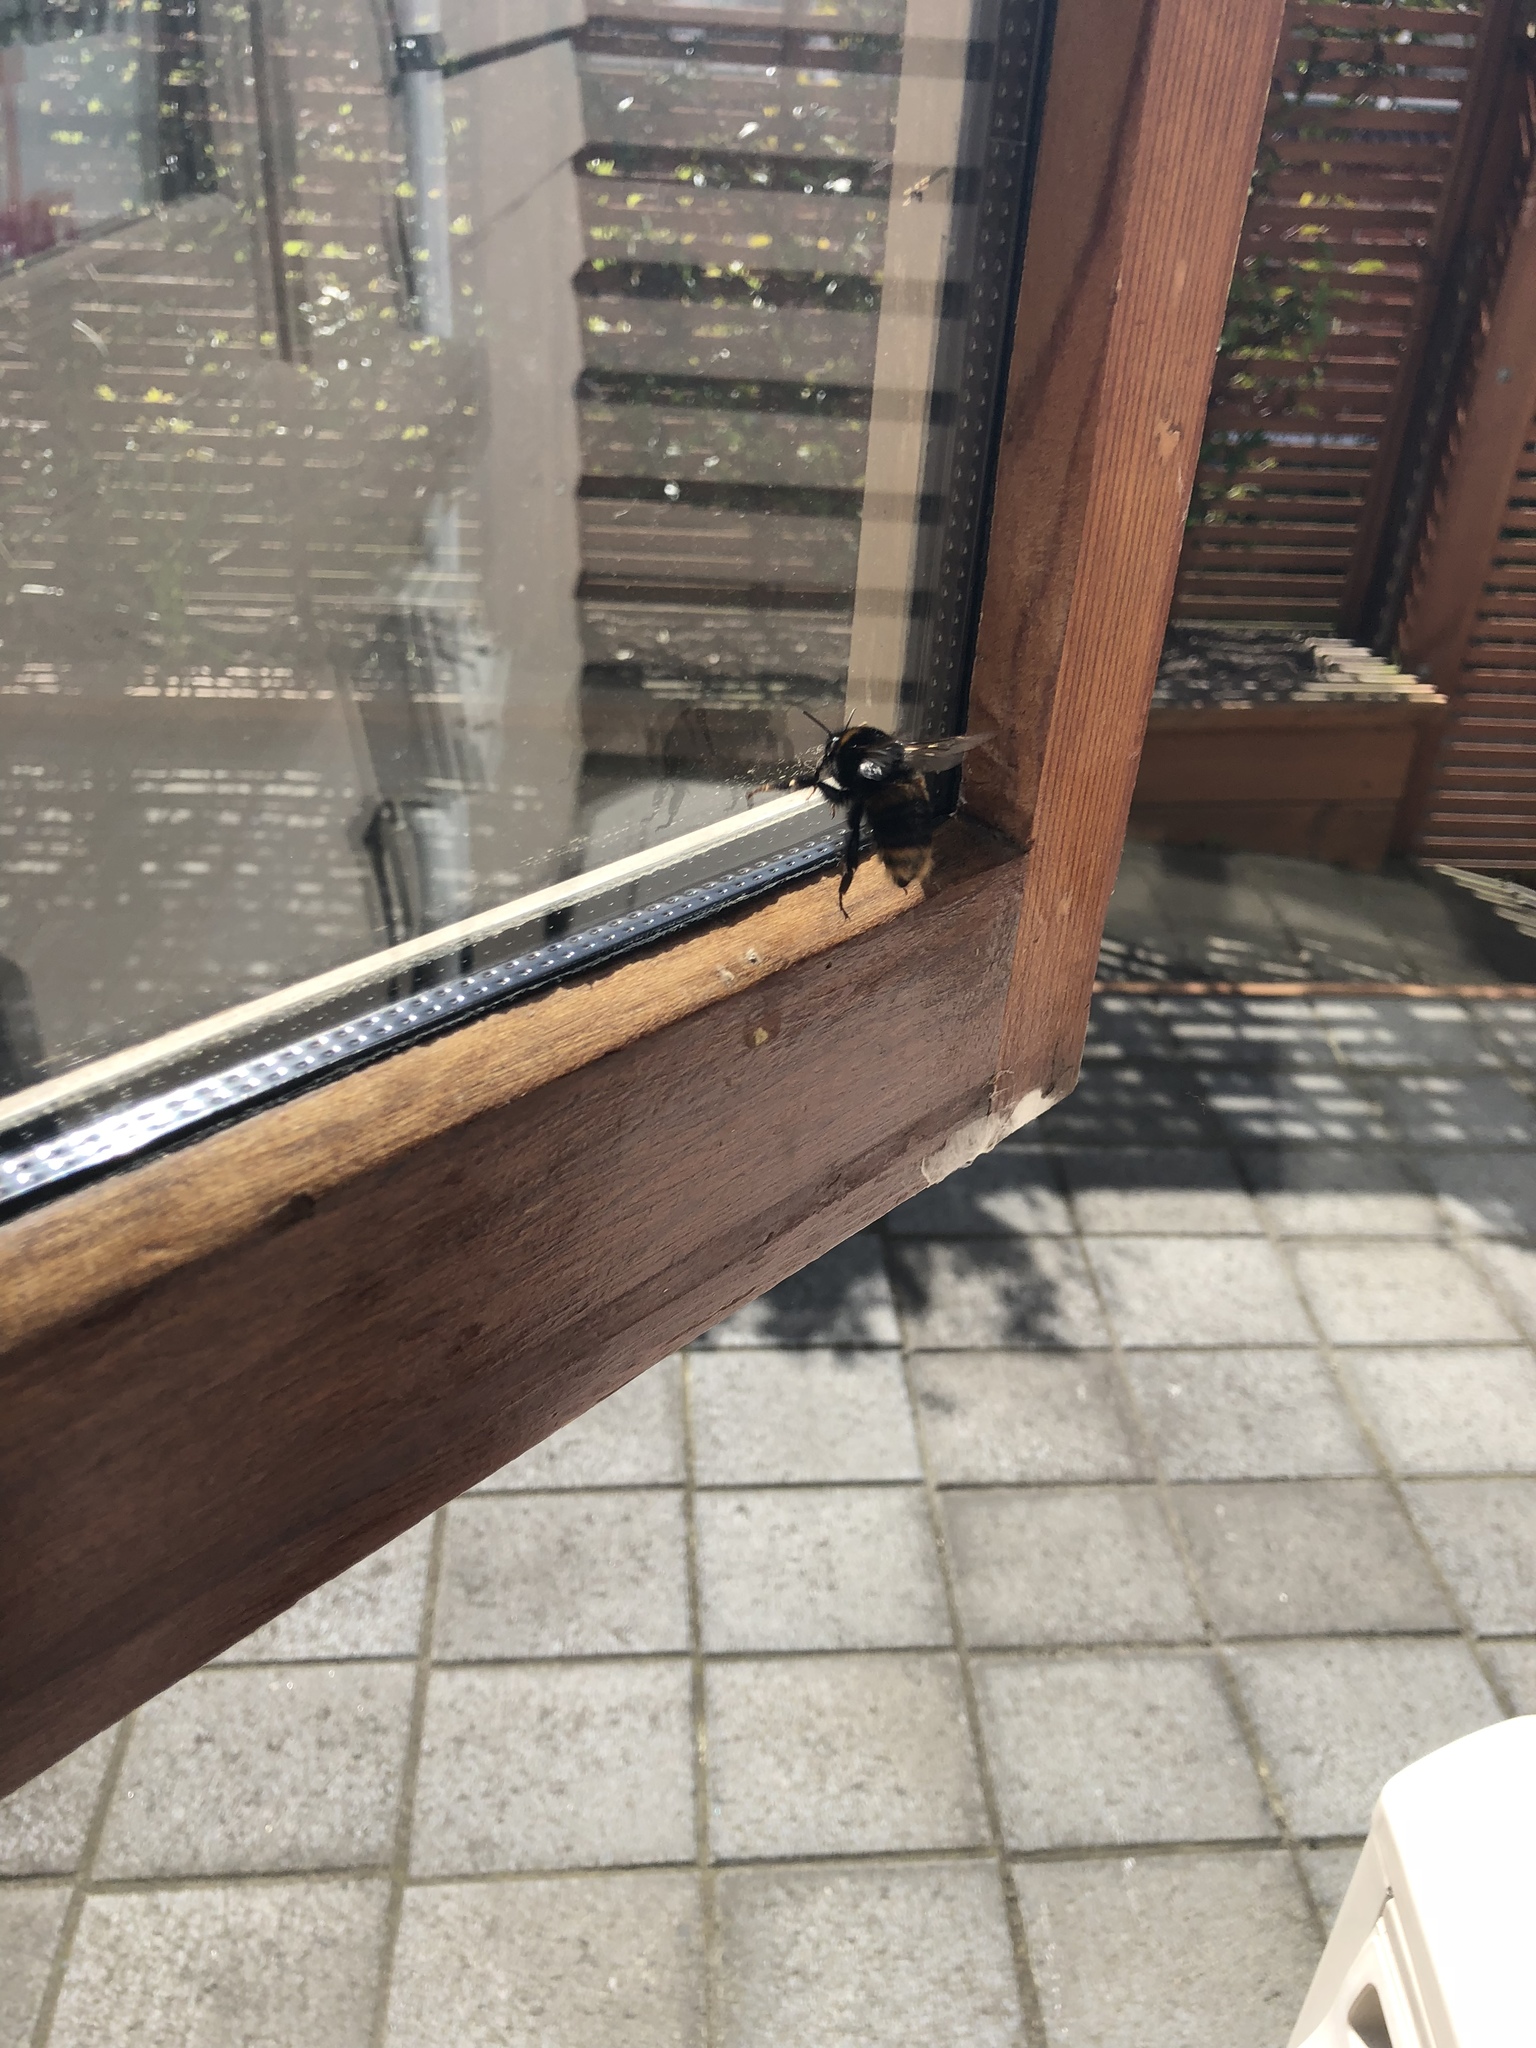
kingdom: Animalia
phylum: Arthropoda
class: Insecta
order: Hymenoptera
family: Apidae
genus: Bombus
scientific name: Bombus terrestris
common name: Buff-tailed bumblebee
